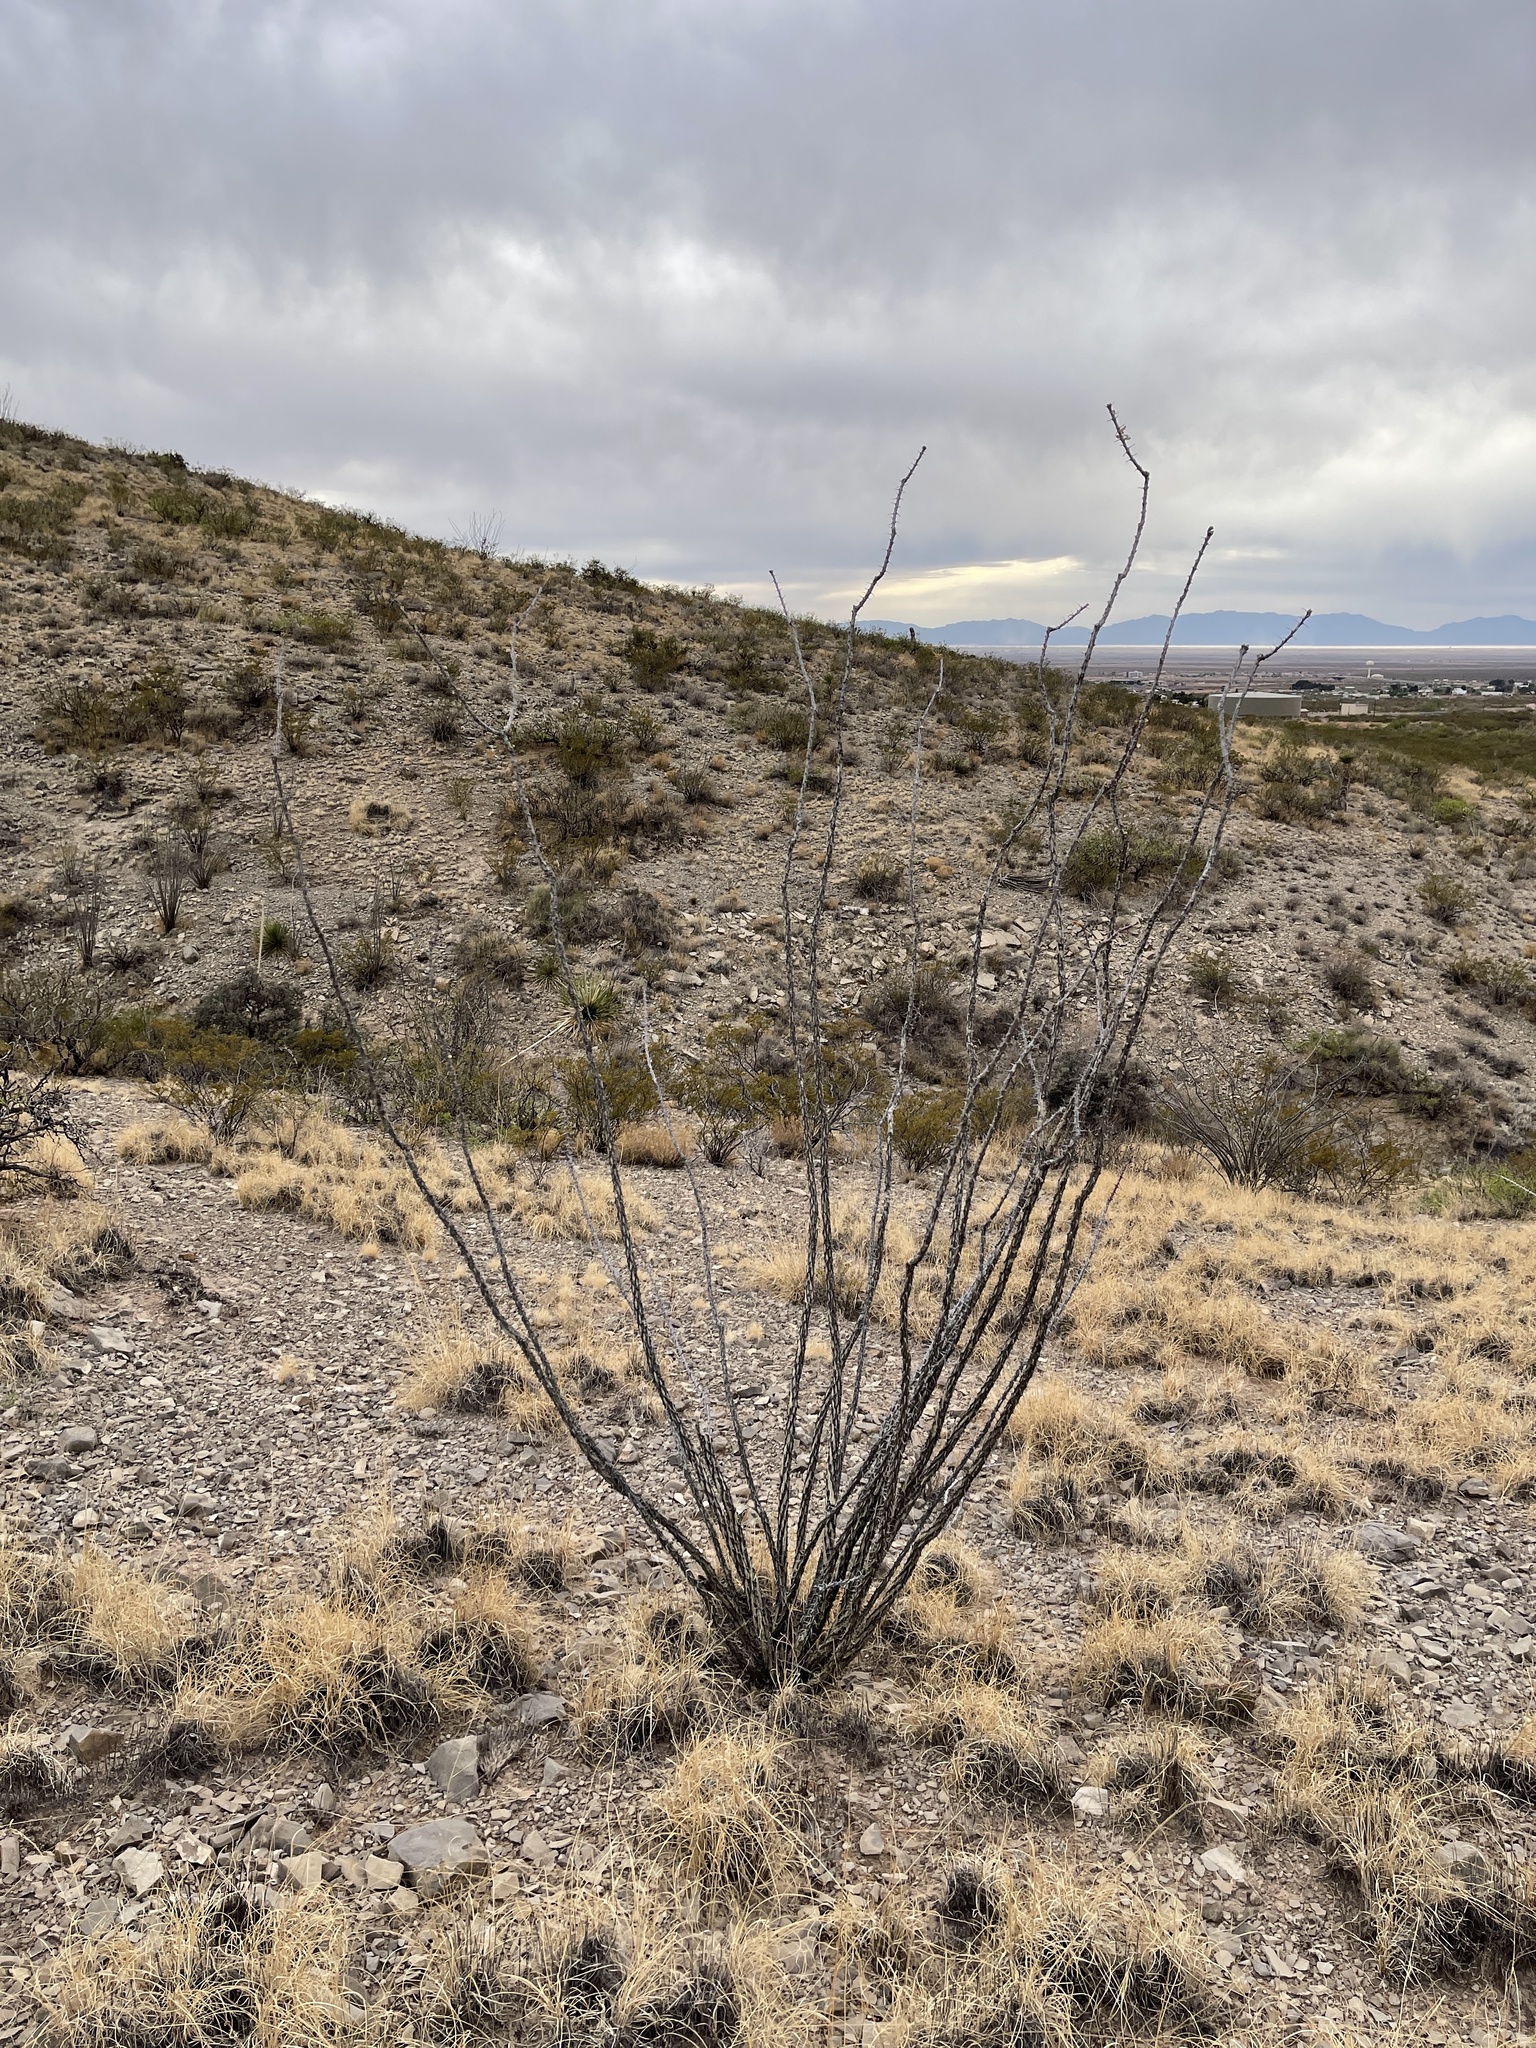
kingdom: Plantae
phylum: Tracheophyta
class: Magnoliopsida
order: Ericales
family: Fouquieriaceae
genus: Fouquieria
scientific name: Fouquieria splendens
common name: Vine-cactus
